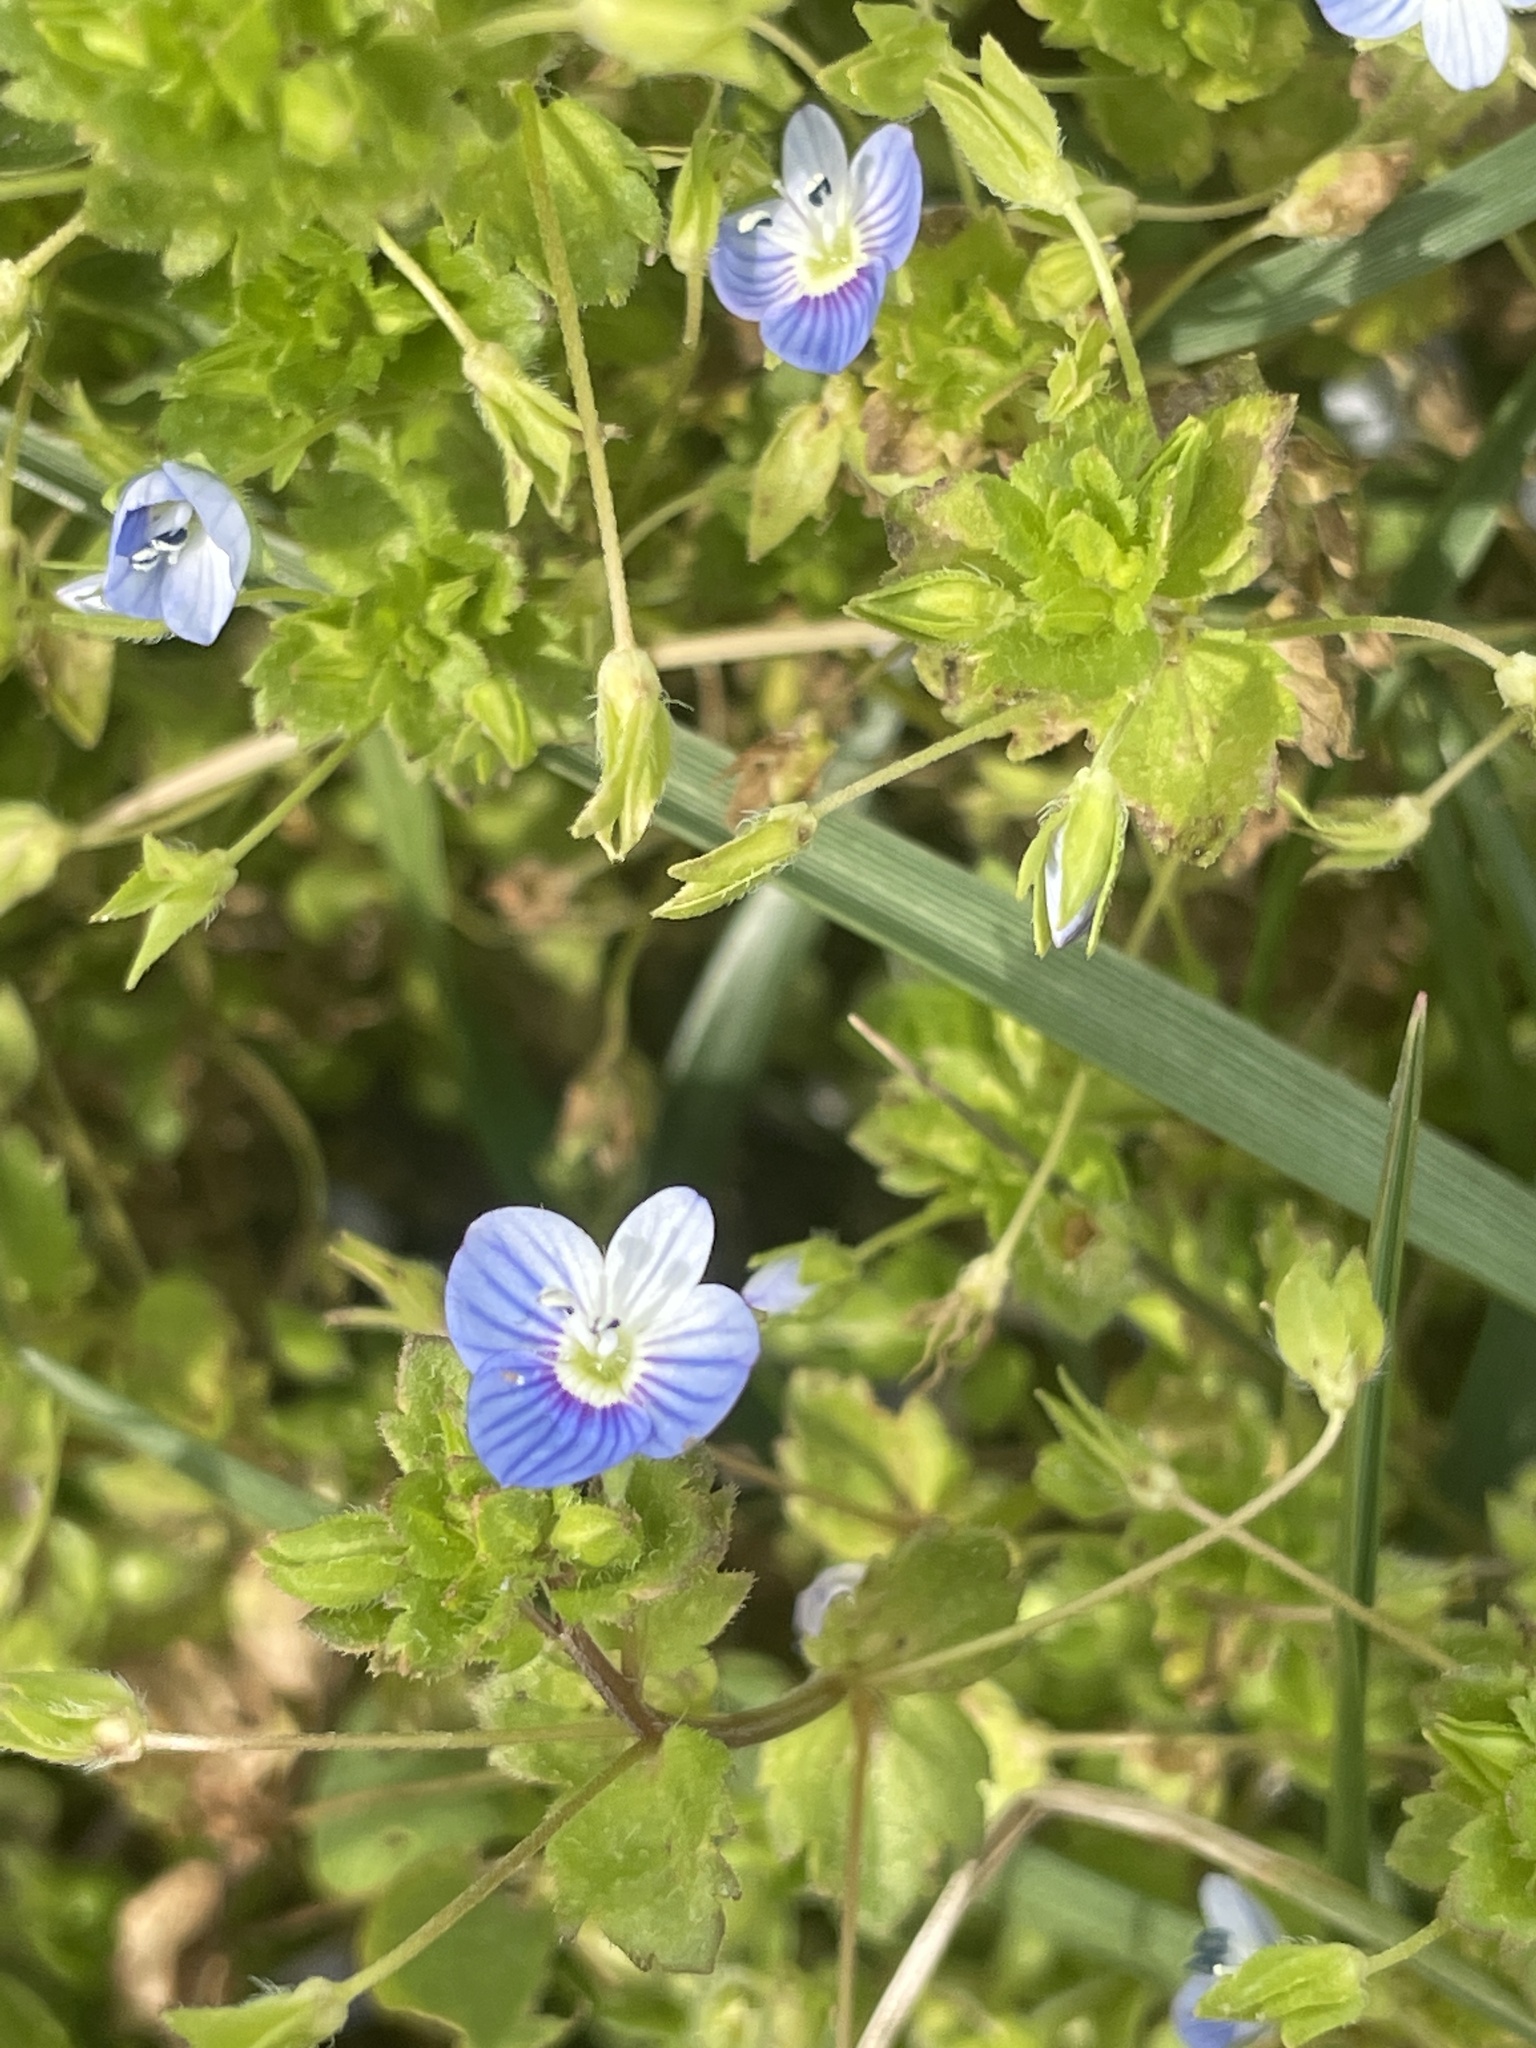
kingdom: Plantae
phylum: Tracheophyta
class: Magnoliopsida
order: Lamiales
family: Plantaginaceae
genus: Veronica
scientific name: Veronica persica
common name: Common field-speedwell
